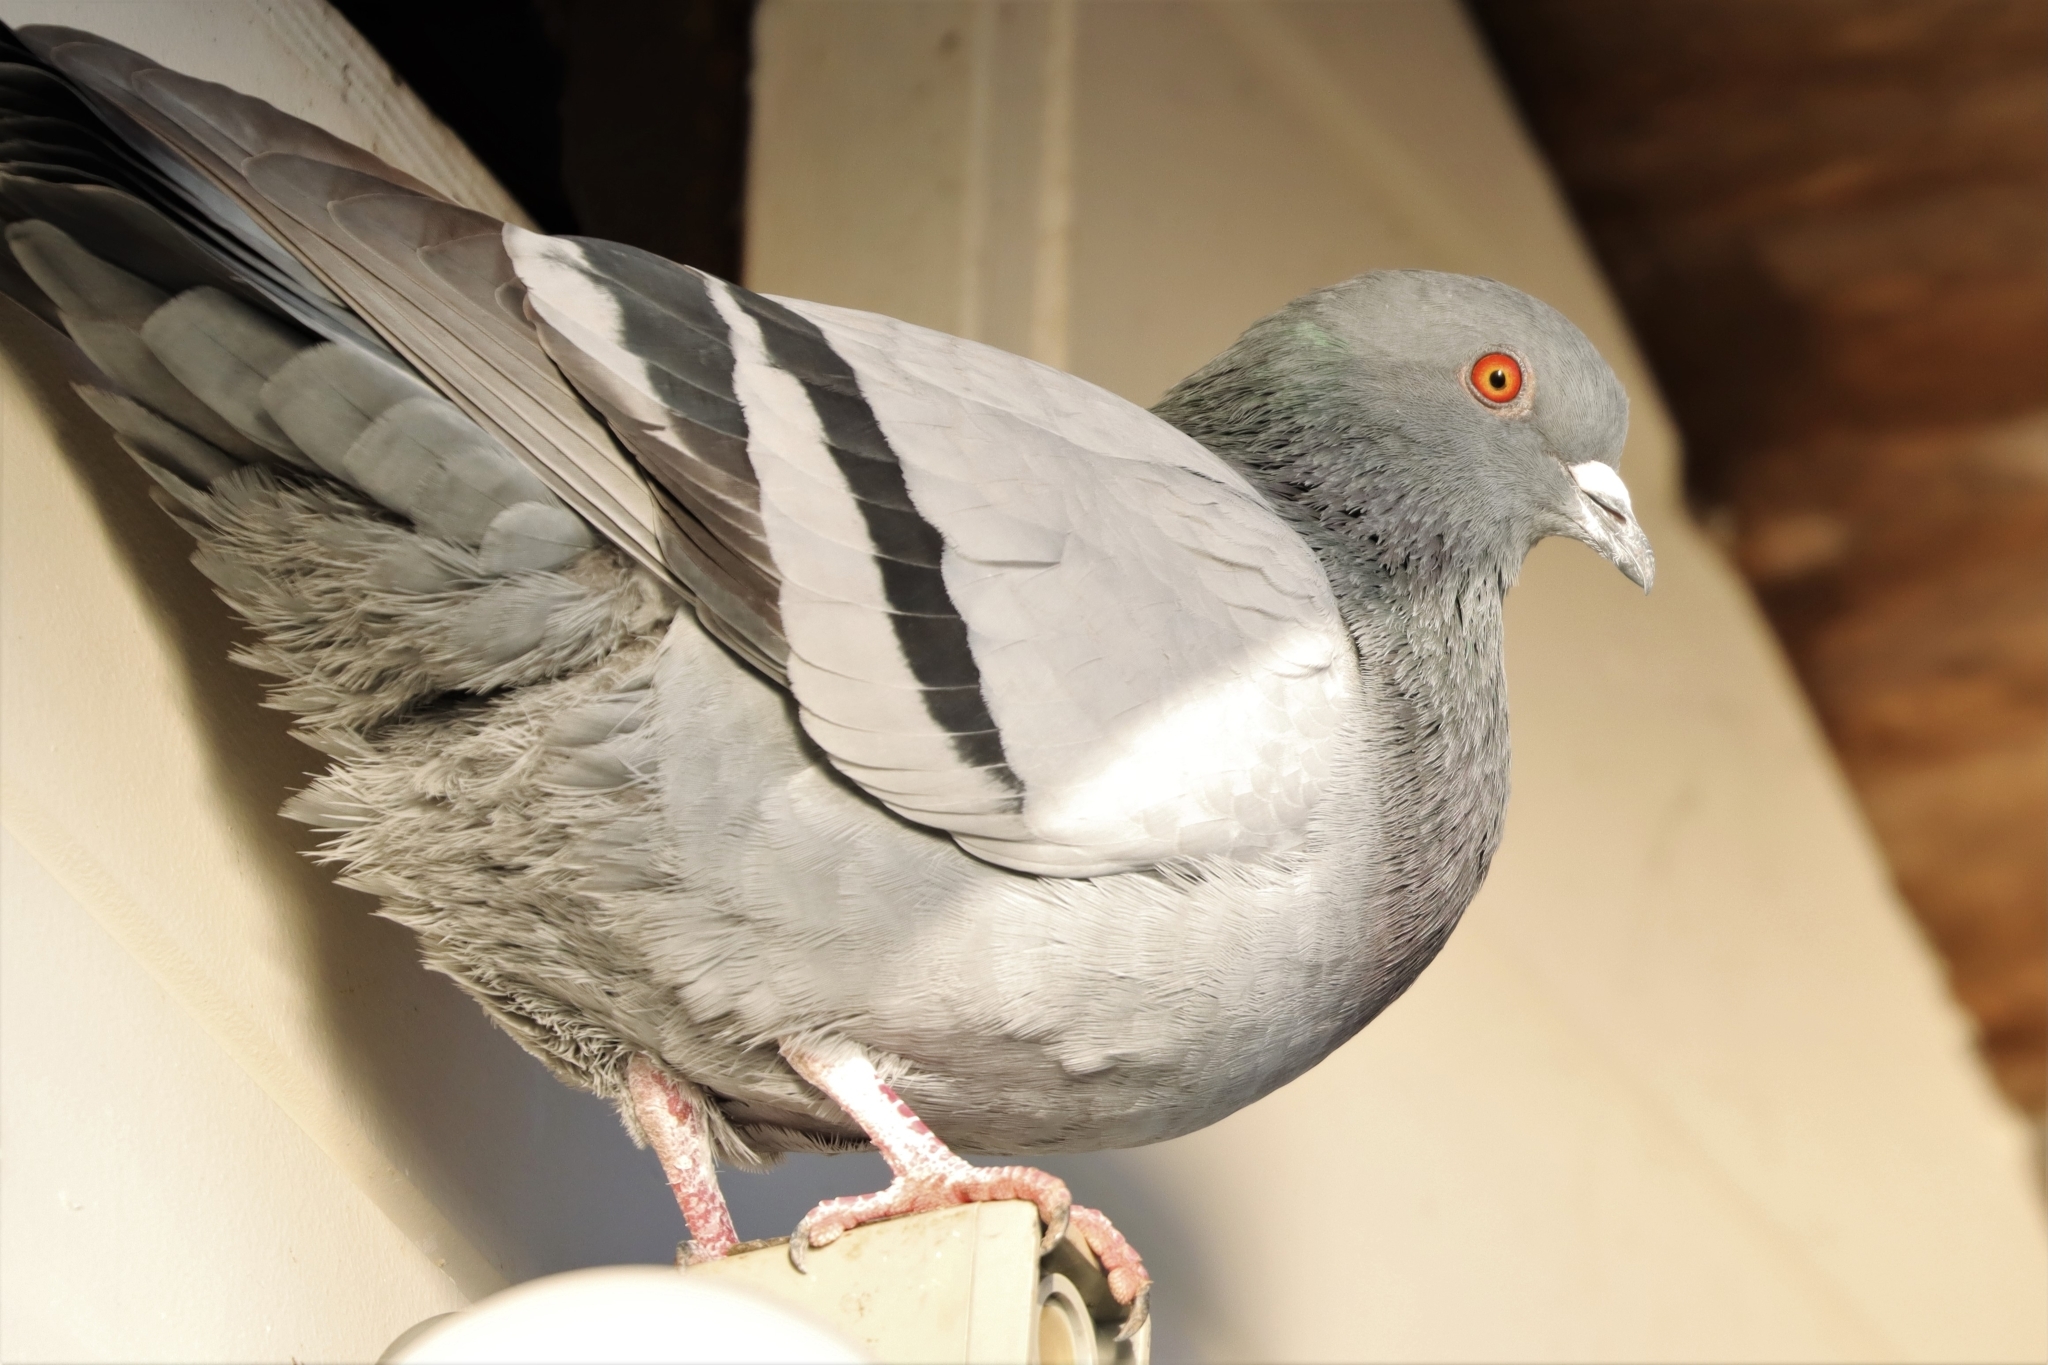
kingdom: Animalia
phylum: Chordata
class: Aves
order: Columbiformes
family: Columbidae
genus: Columba
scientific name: Columba livia
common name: Rock pigeon
